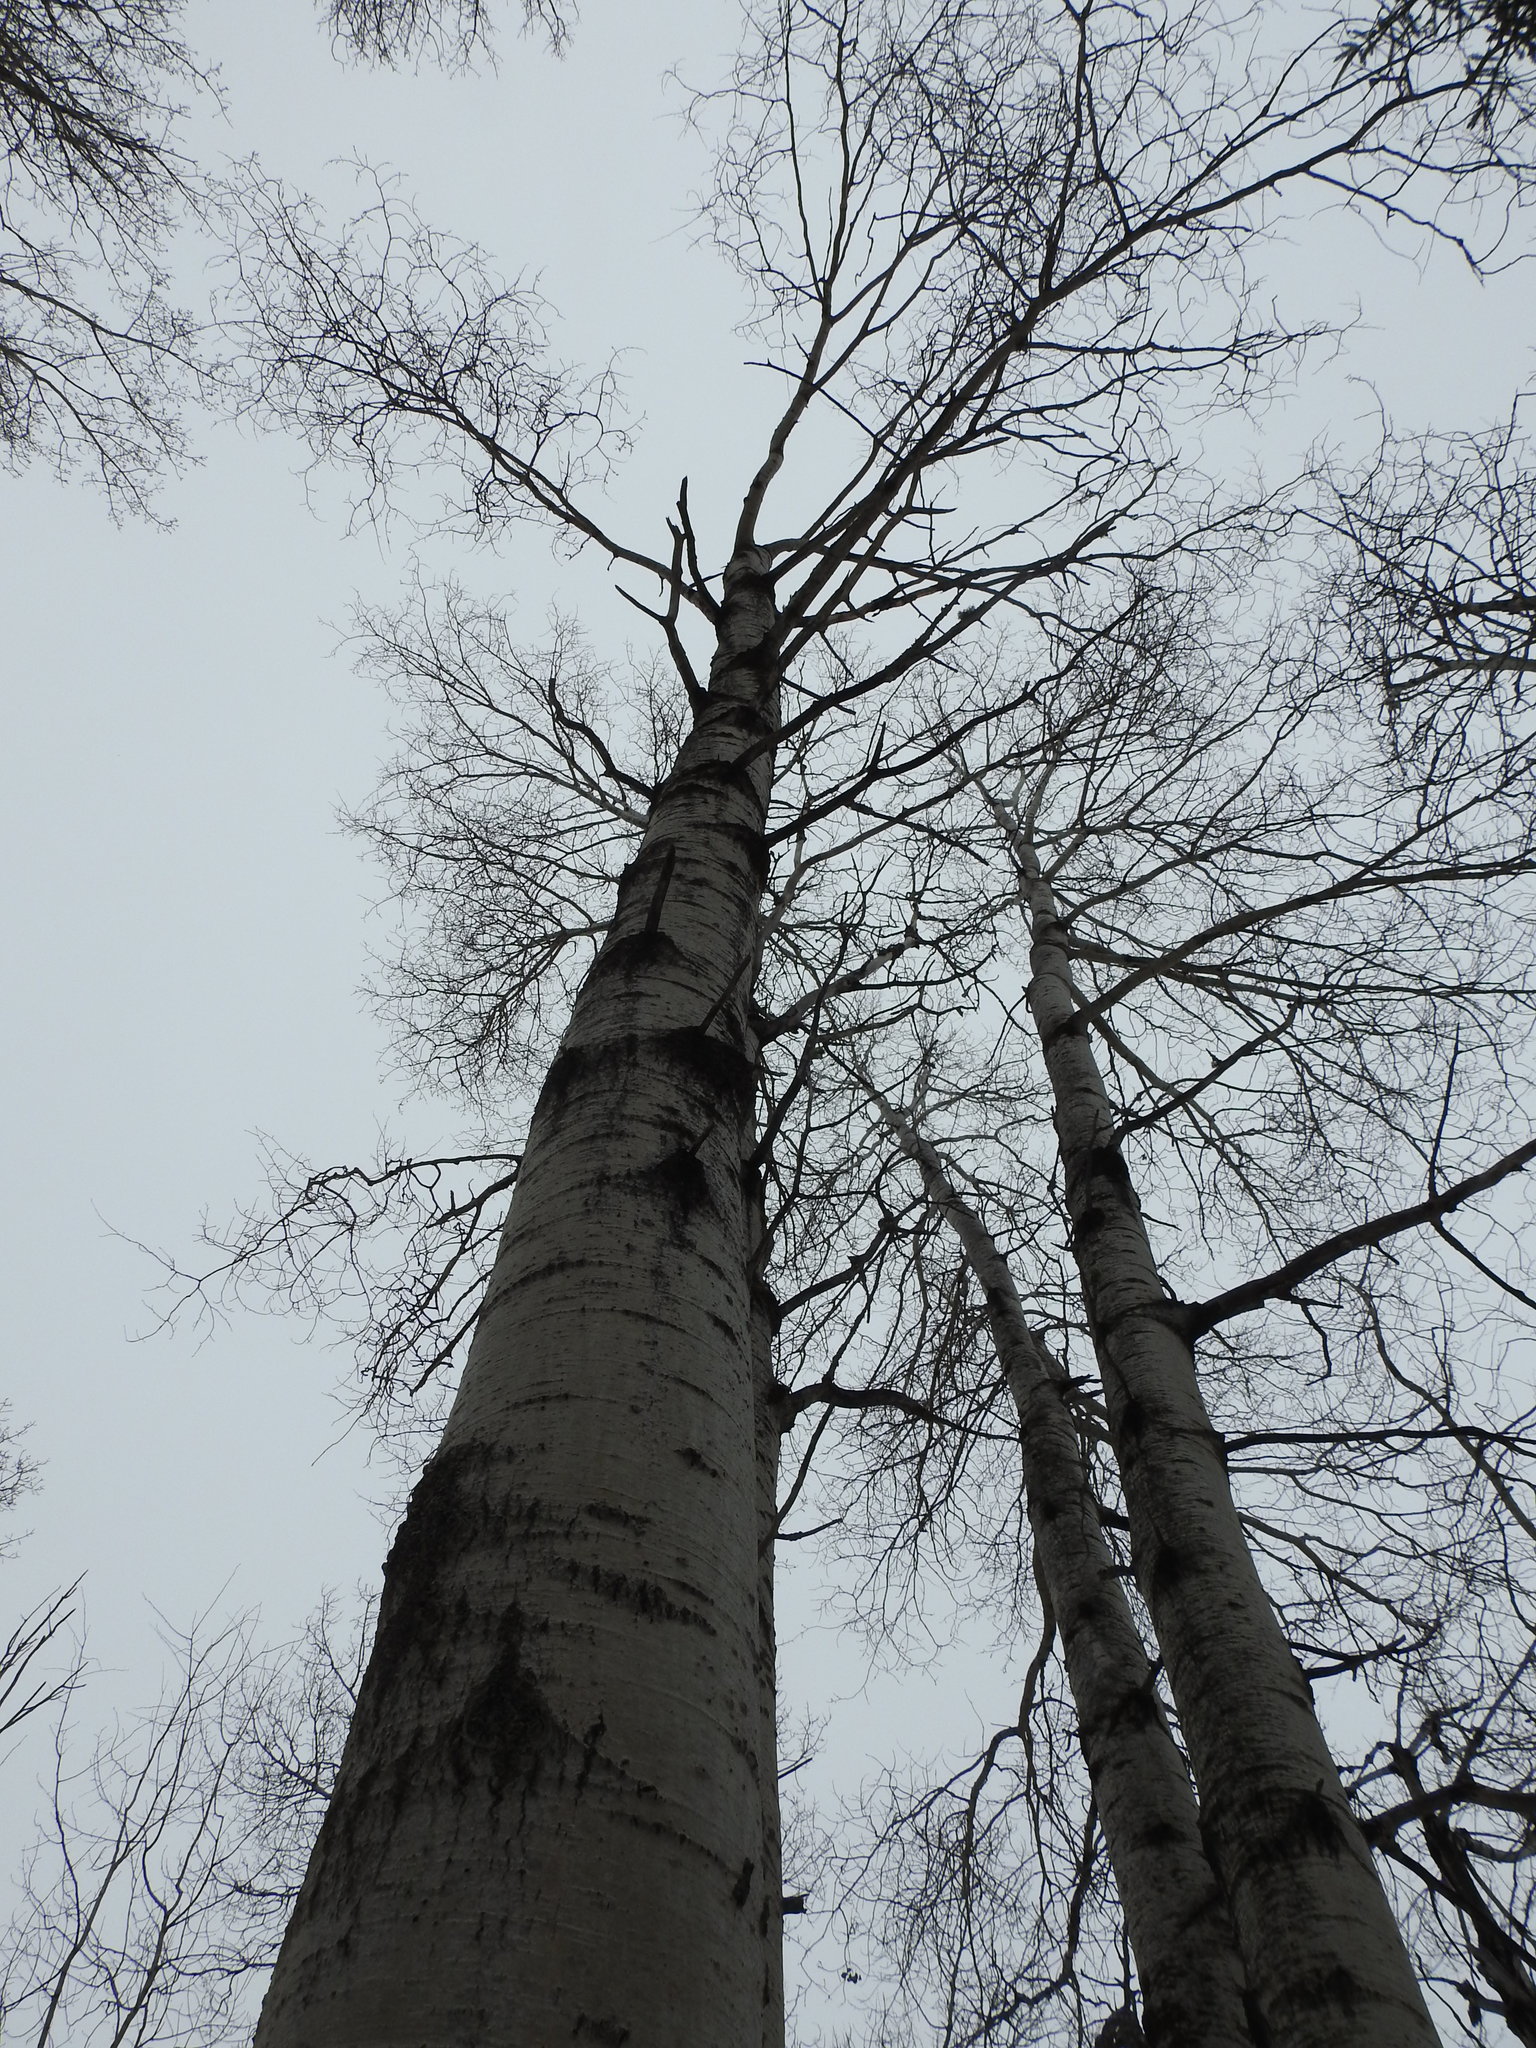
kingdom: Plantae
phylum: Tracheophyta
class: Magnoliopsida
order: Malpighiales
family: Salicaceae
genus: Populus
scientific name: Populus tremuloides
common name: Quaking aspen
